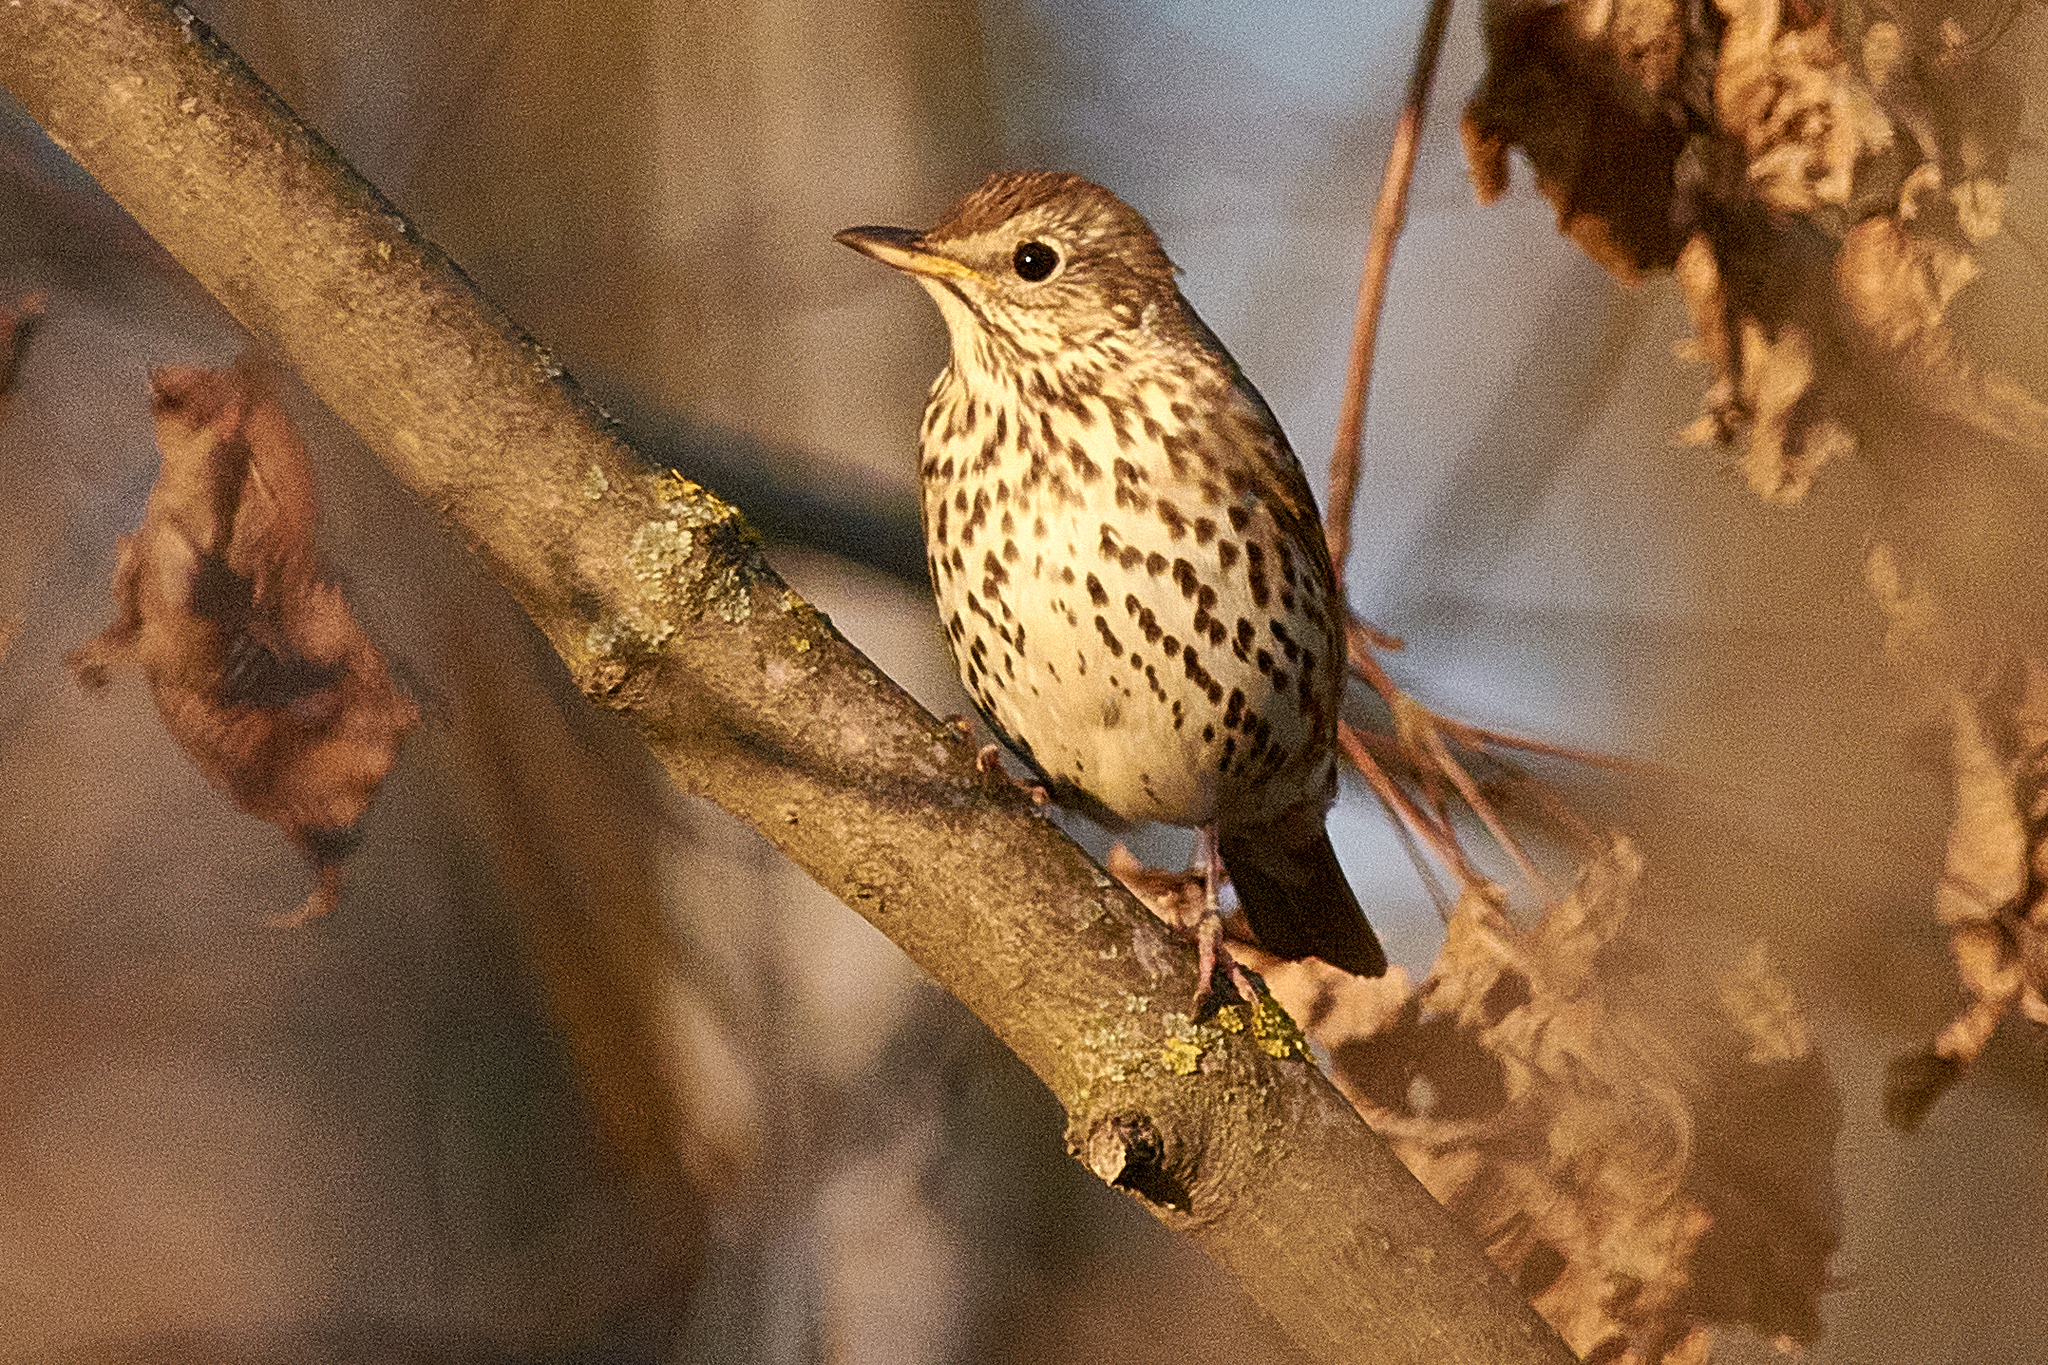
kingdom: Animalia
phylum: Chordata
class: Aves
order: Passeriformes
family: Turdidae
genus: Turdus
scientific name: Turdus philomelos
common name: Song thrush
